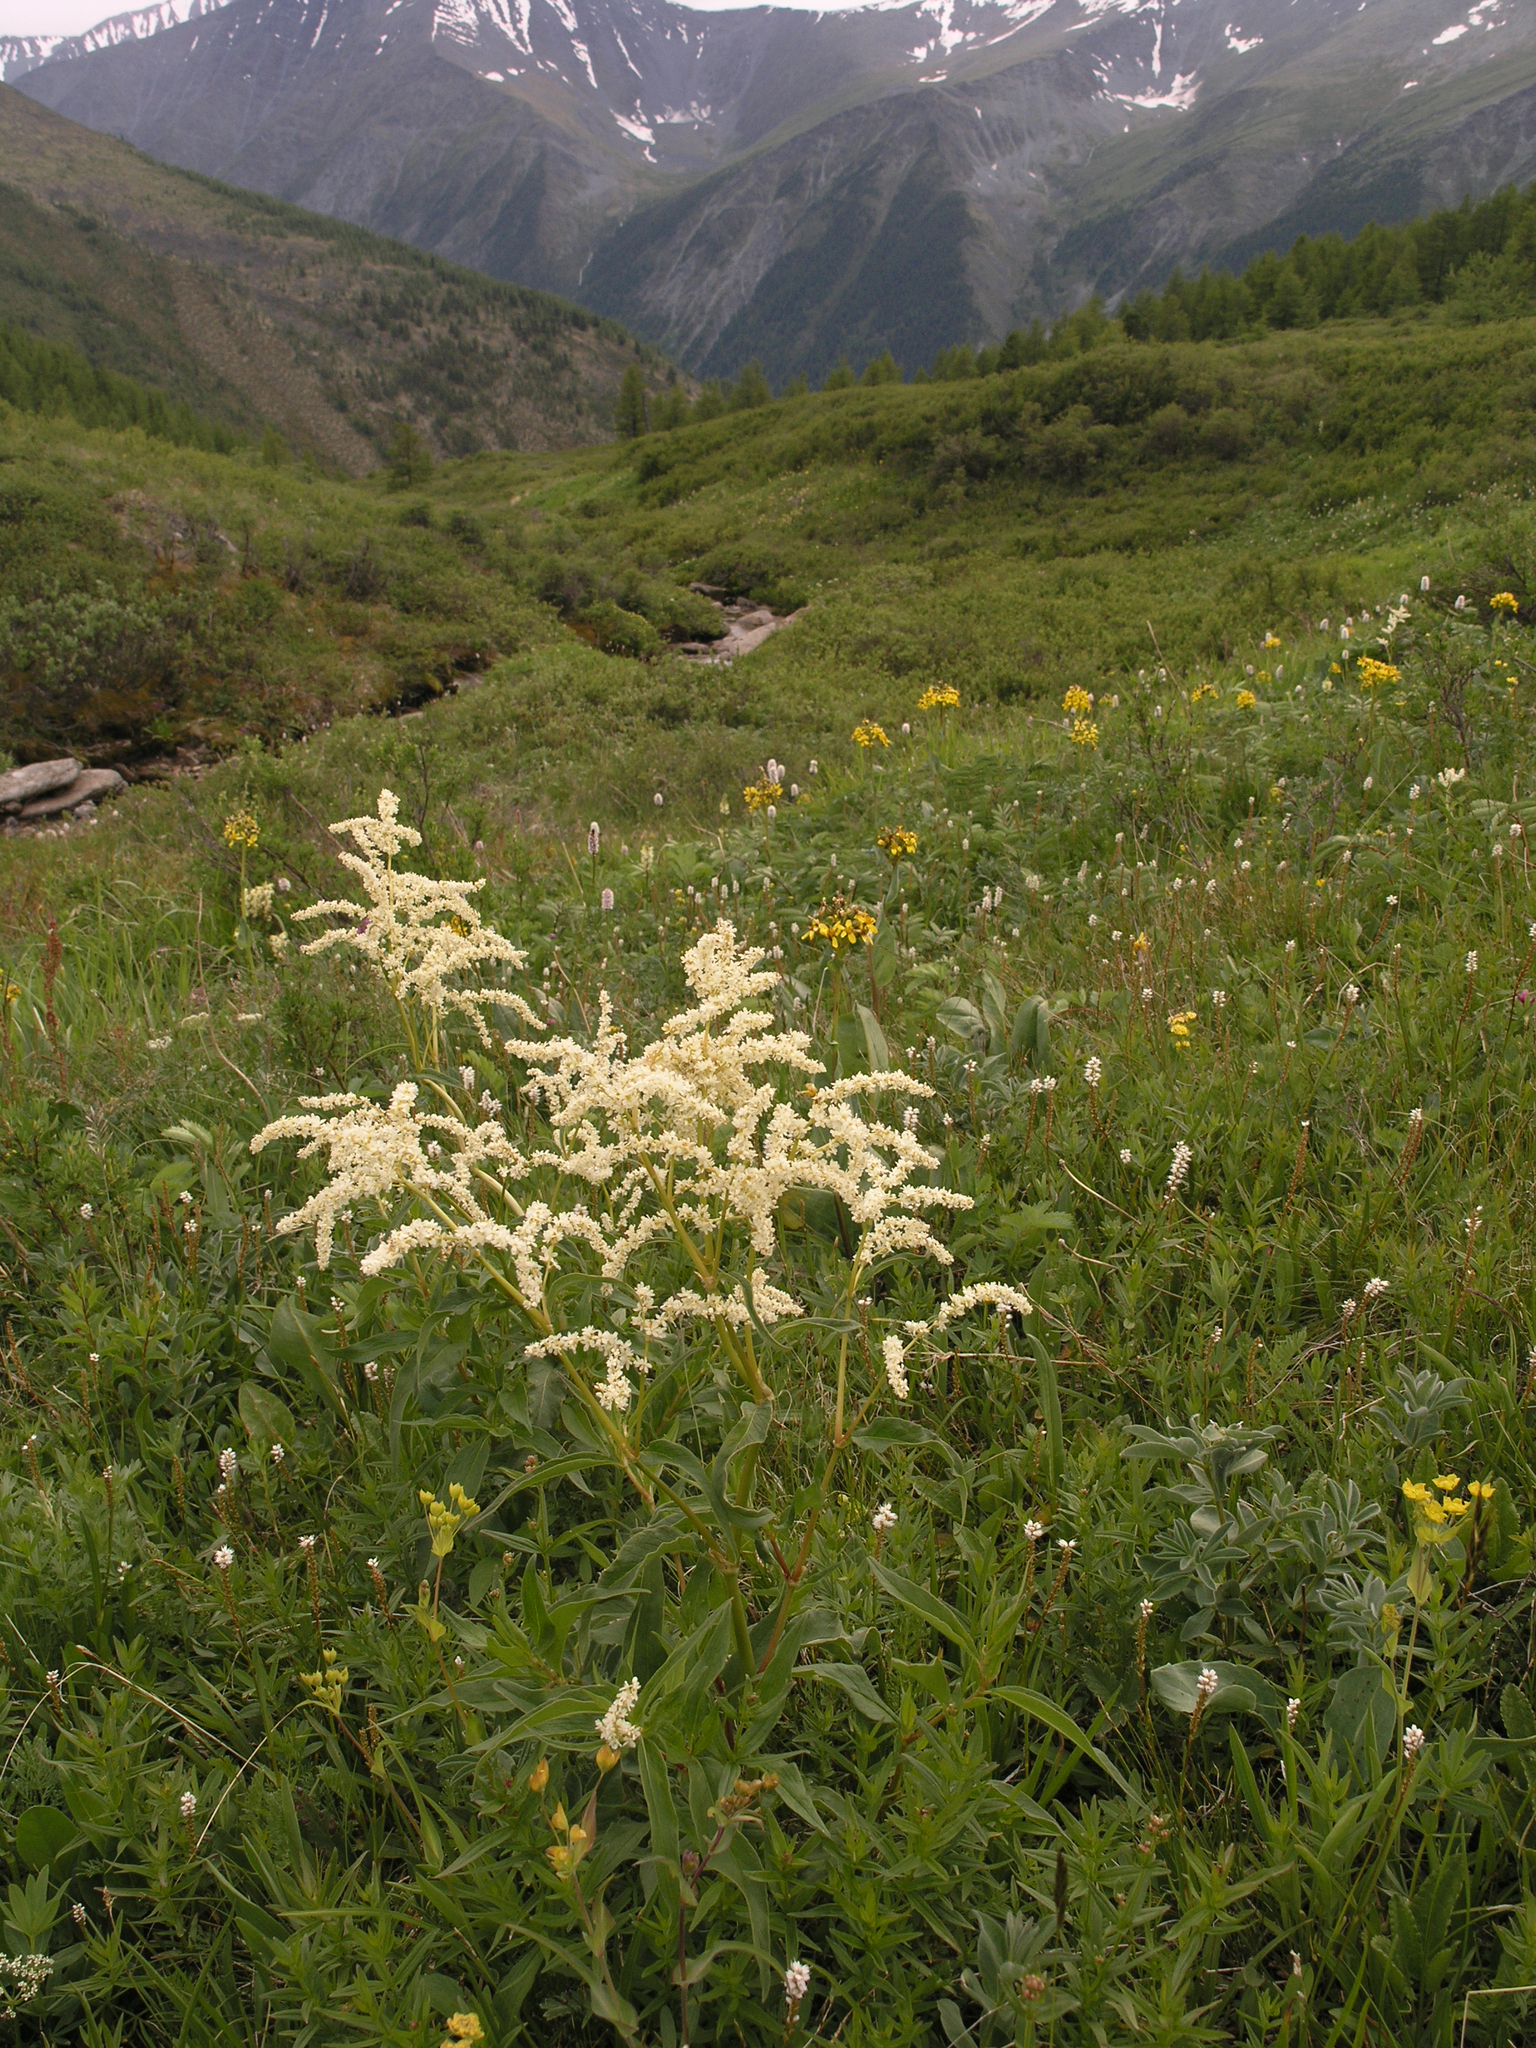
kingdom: Plantae
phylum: Tracheophyta
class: Magnoliopsida
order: Caryophyllales
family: Polygonaceae
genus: Koenigia
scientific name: Koenigia alpina
